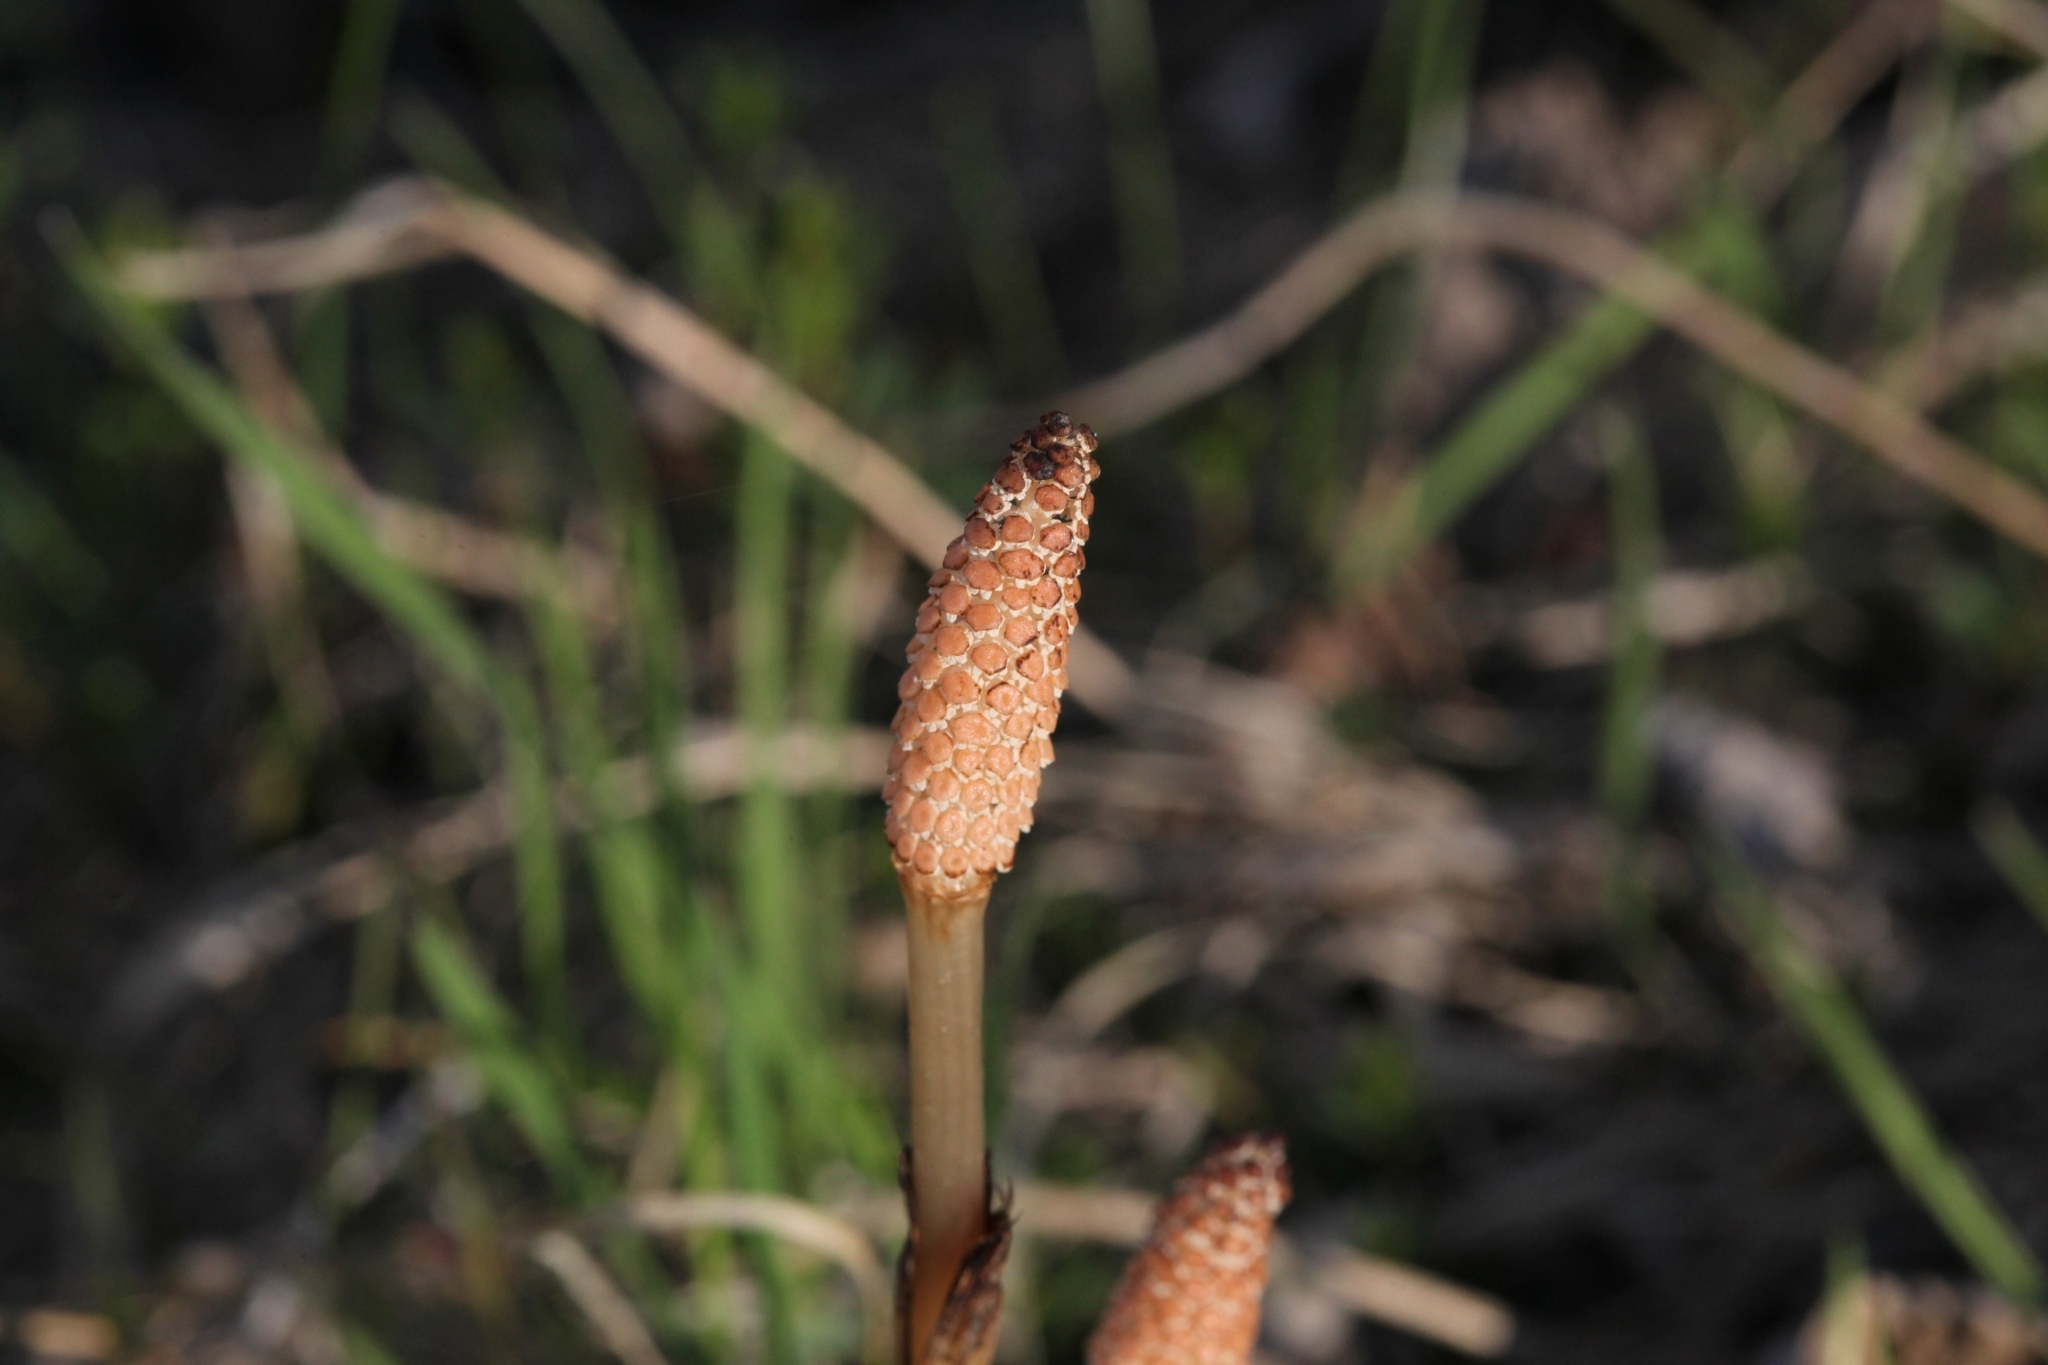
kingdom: Plantae
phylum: Tracheophyta
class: Polypodiopsida
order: Equisetales
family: Equisetaceae
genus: Equisetum
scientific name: Equisetum arvense
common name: Field horsetail
